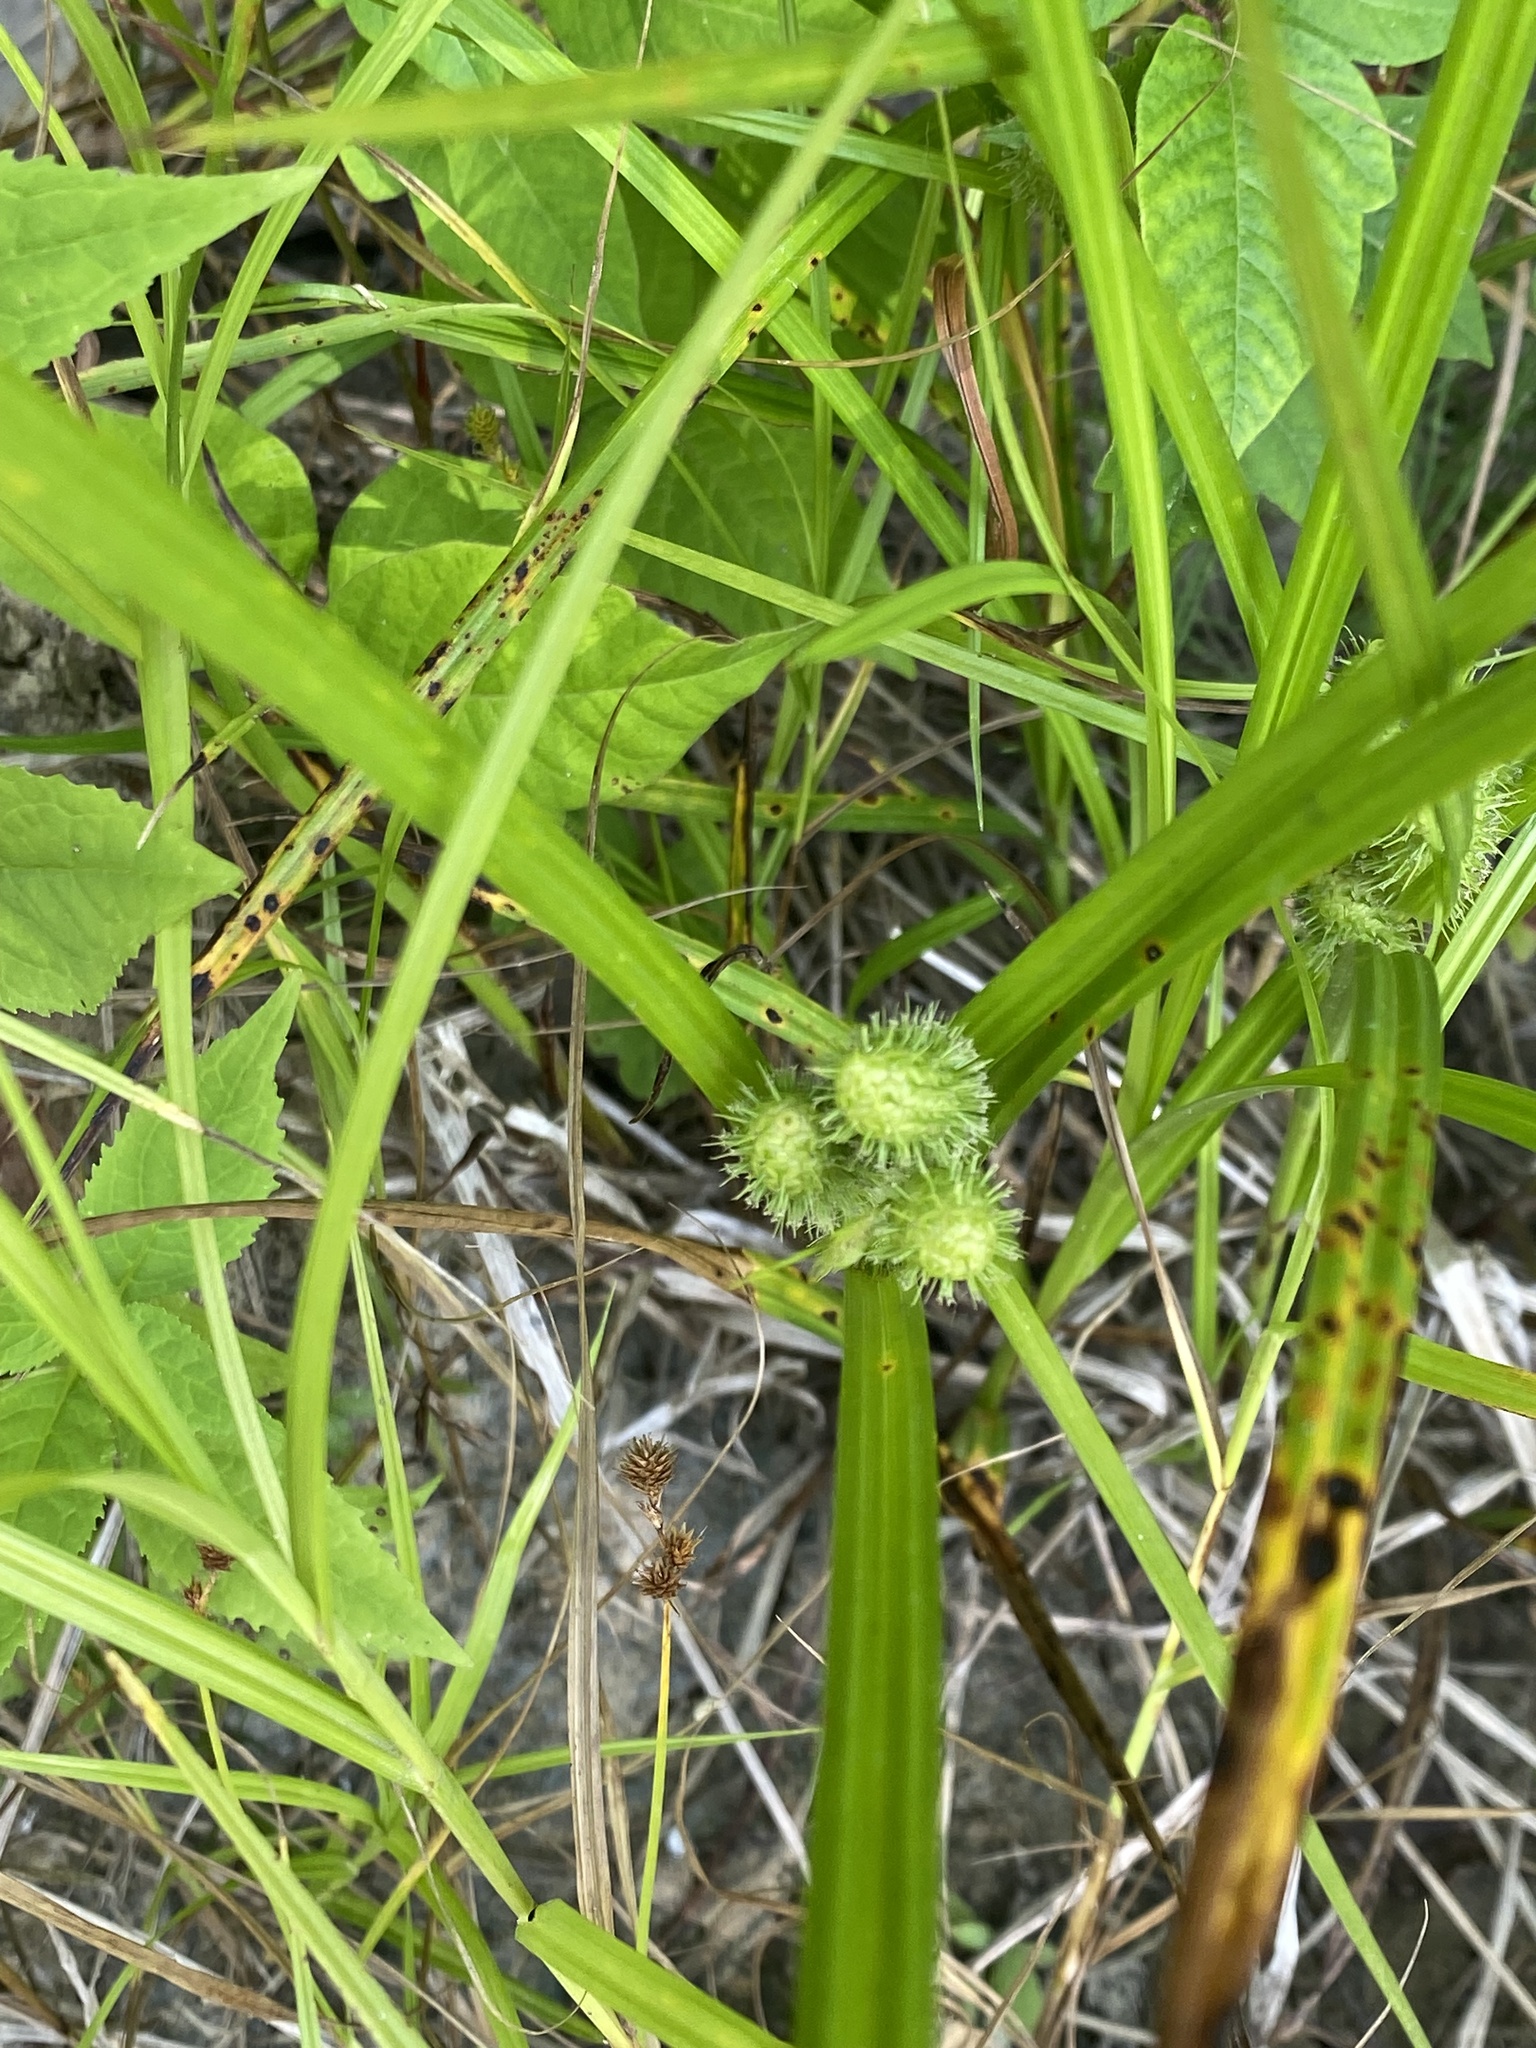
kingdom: Plantae
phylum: Tracheophyta
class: Liliopsida
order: Poales
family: Cyperaceae
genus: Carex
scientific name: Carex frankii
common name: Frank's sedge
